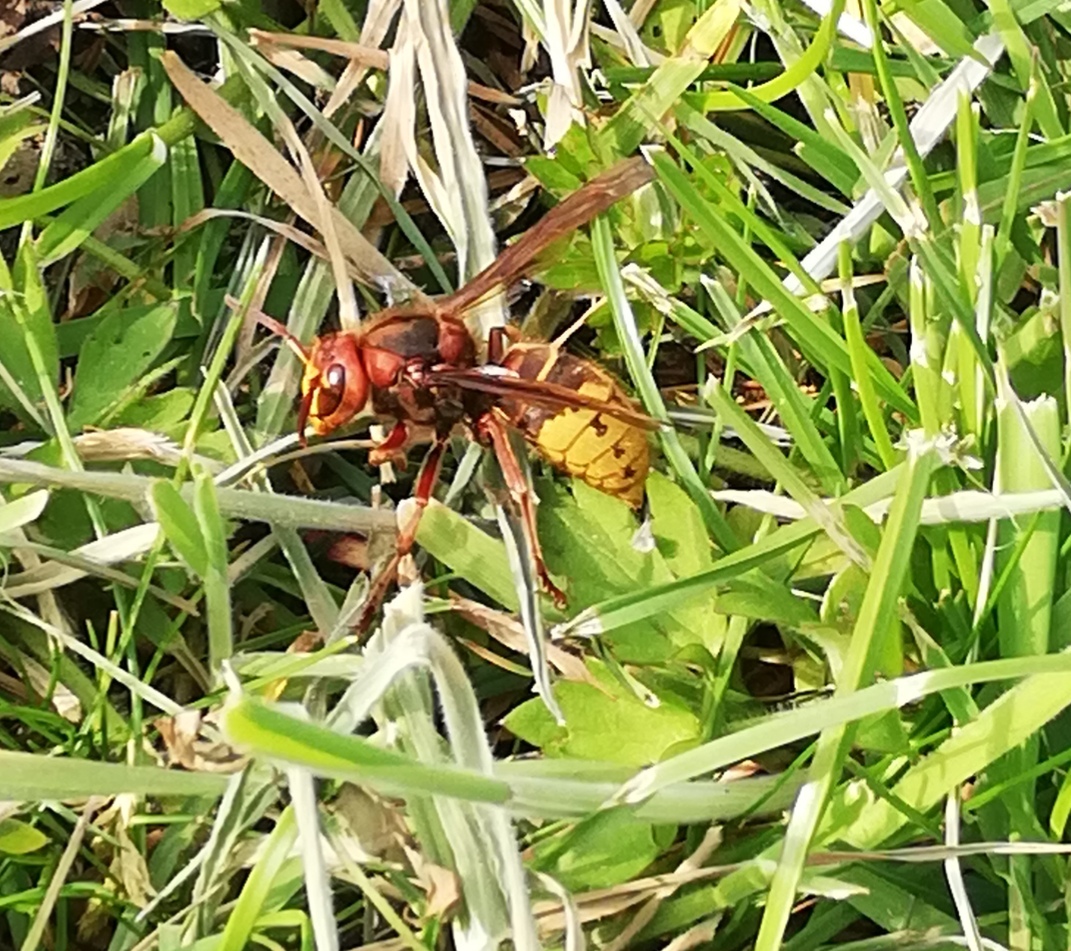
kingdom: Animalia
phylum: Arthropoda
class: Insecta
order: Hymenoptera
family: Vespidae
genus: Vespa
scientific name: Vespa crabro
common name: Hornet
